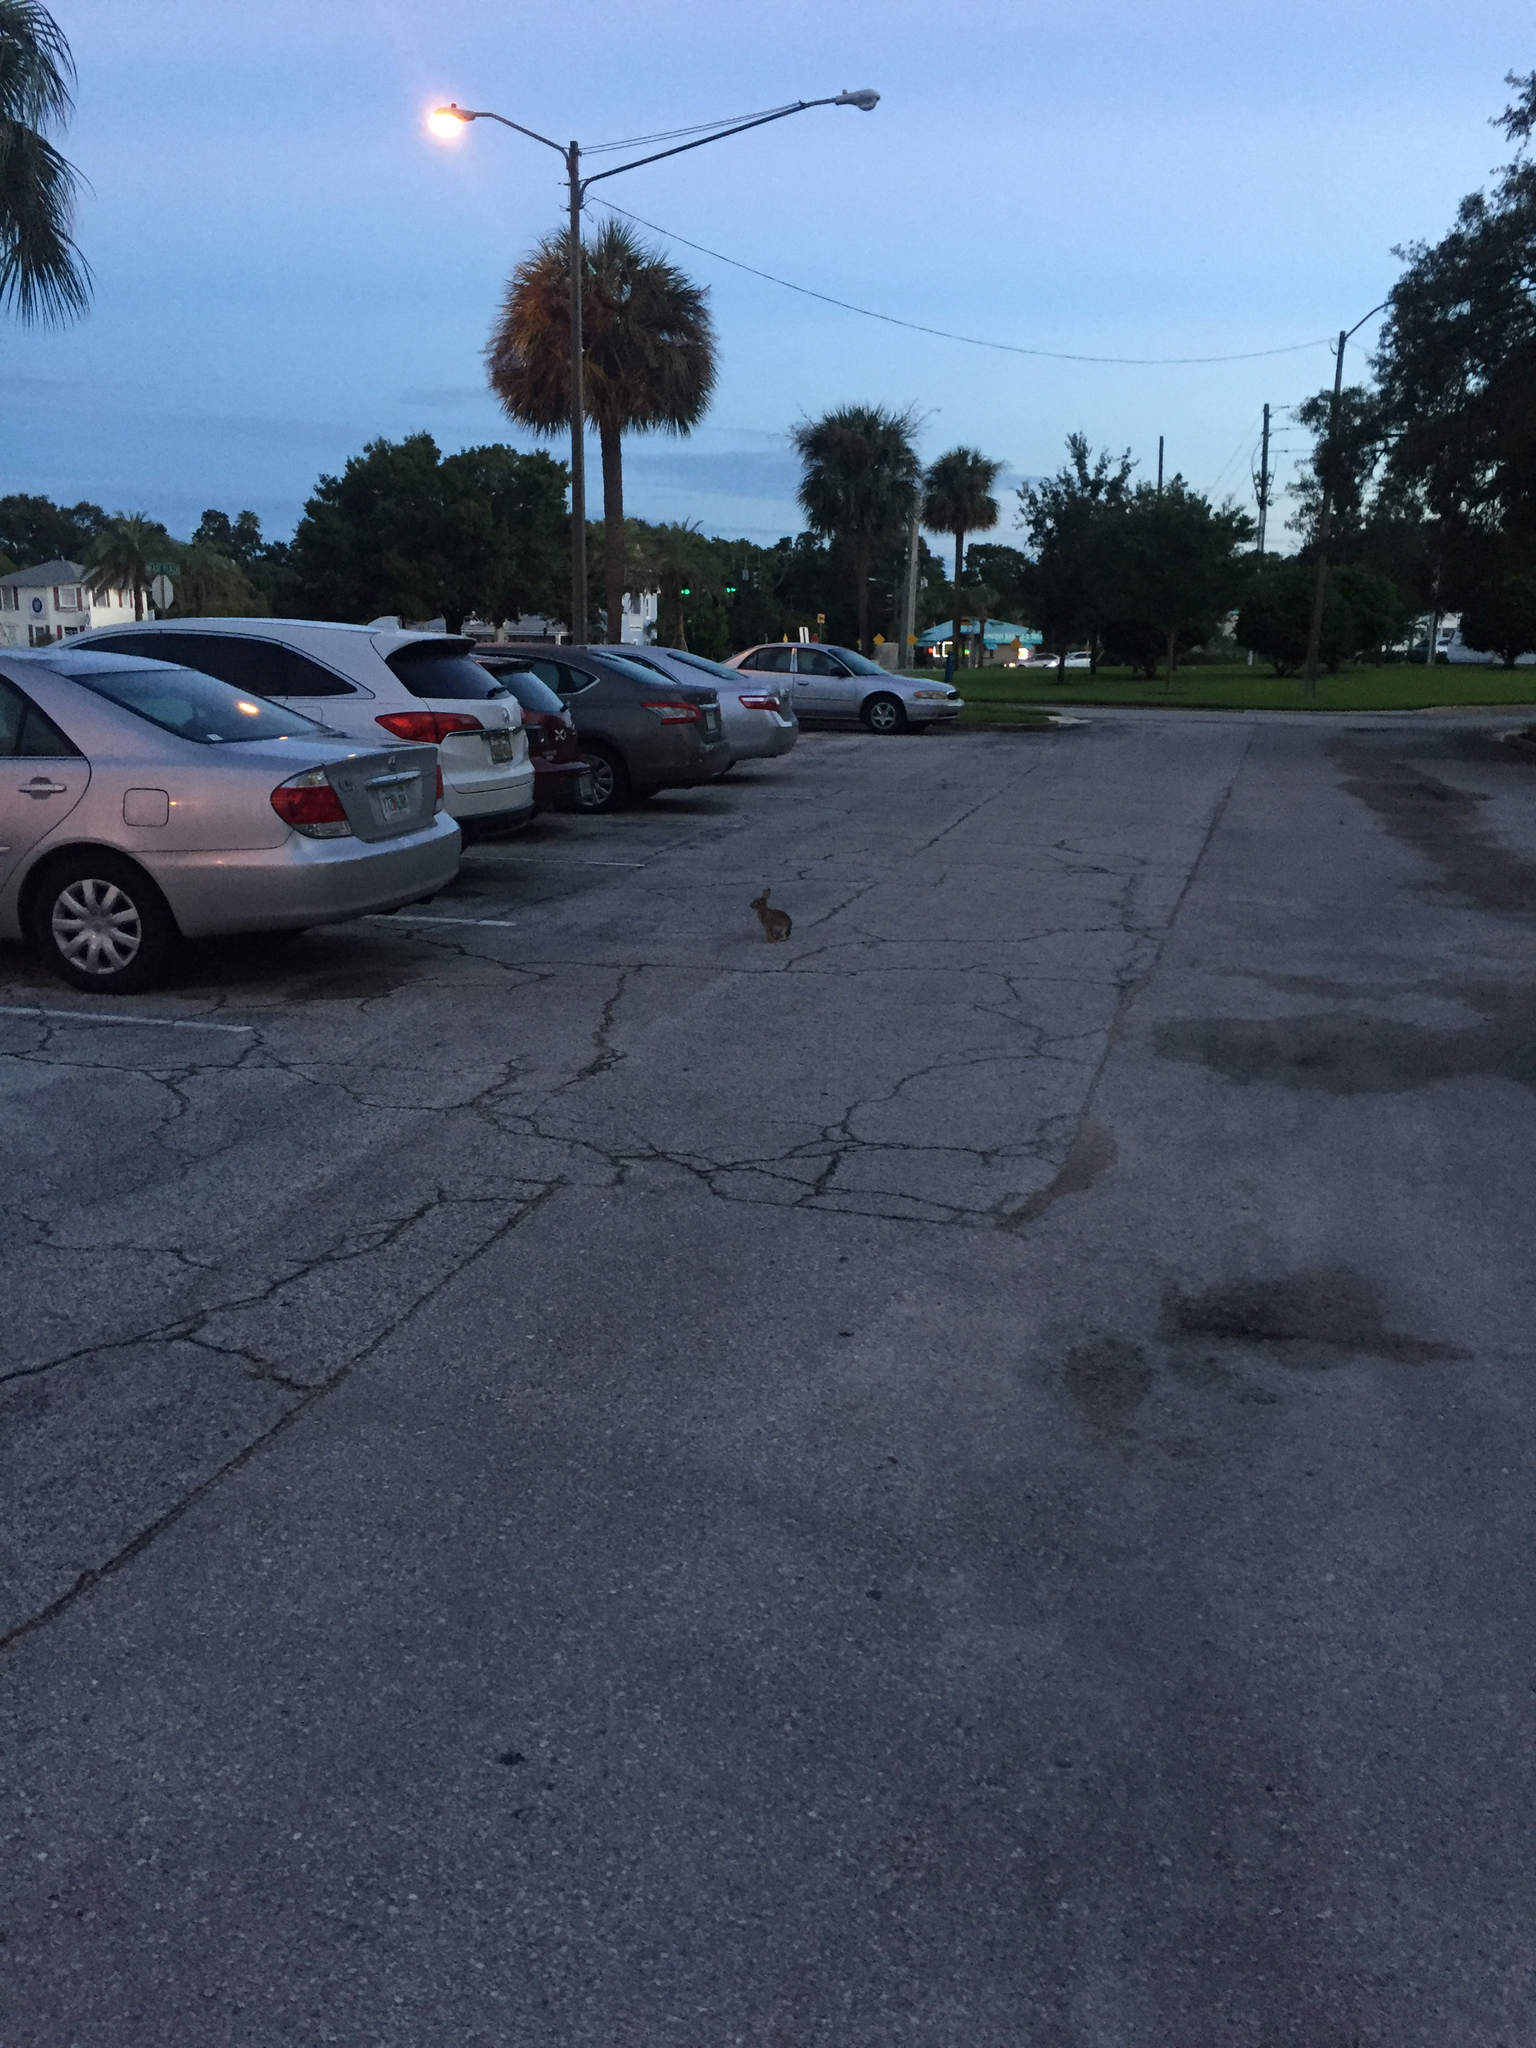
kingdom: Animalia
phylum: Chordata
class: Mammalia
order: Lagomorpha
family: Leporidae
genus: Sylvilagus
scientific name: Sylvilagus floridanus
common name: Eastern cottontail
